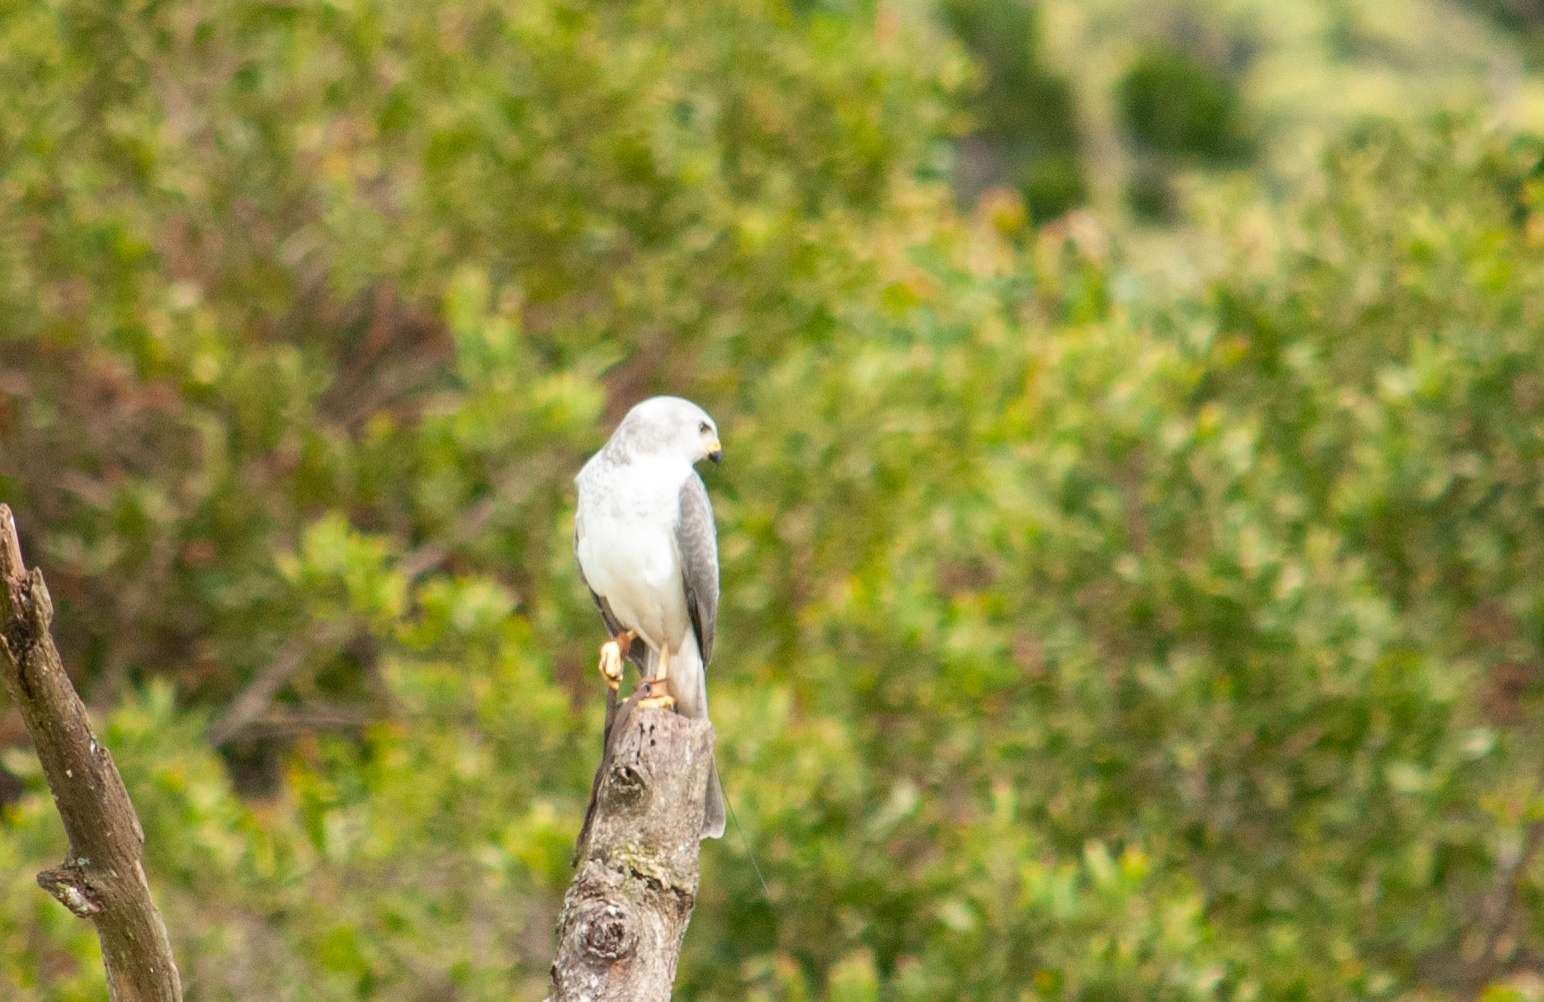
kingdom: Animalia
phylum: Chordata
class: Aves
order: Accipitriformes
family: Accipitridae
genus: Accipiter
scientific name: Accipiter novaehollandiae
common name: Grey goshawk
